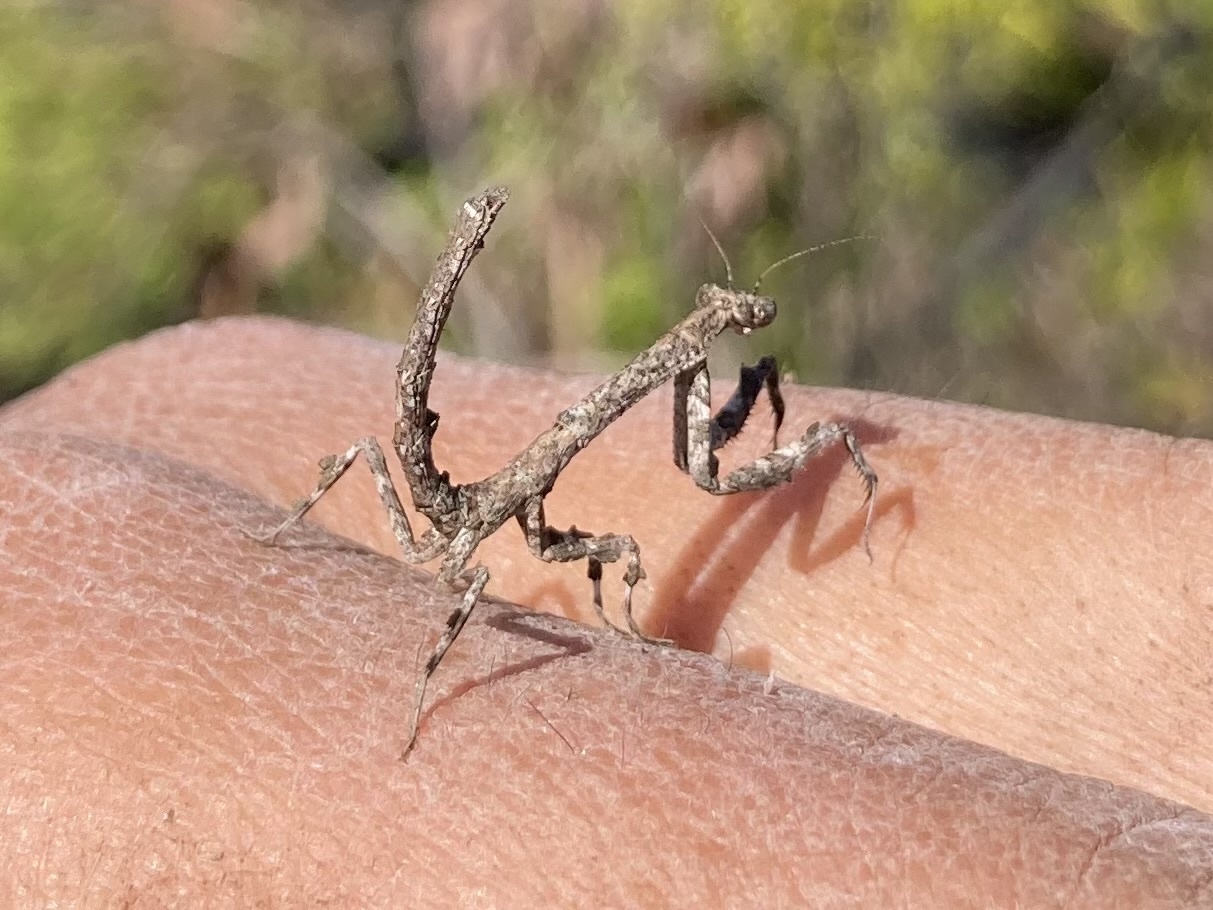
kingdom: Animalia
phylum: Arthropoda
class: Insecta
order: Mantodea
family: Deroplatyidae
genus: Popa
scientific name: Popa spurca
